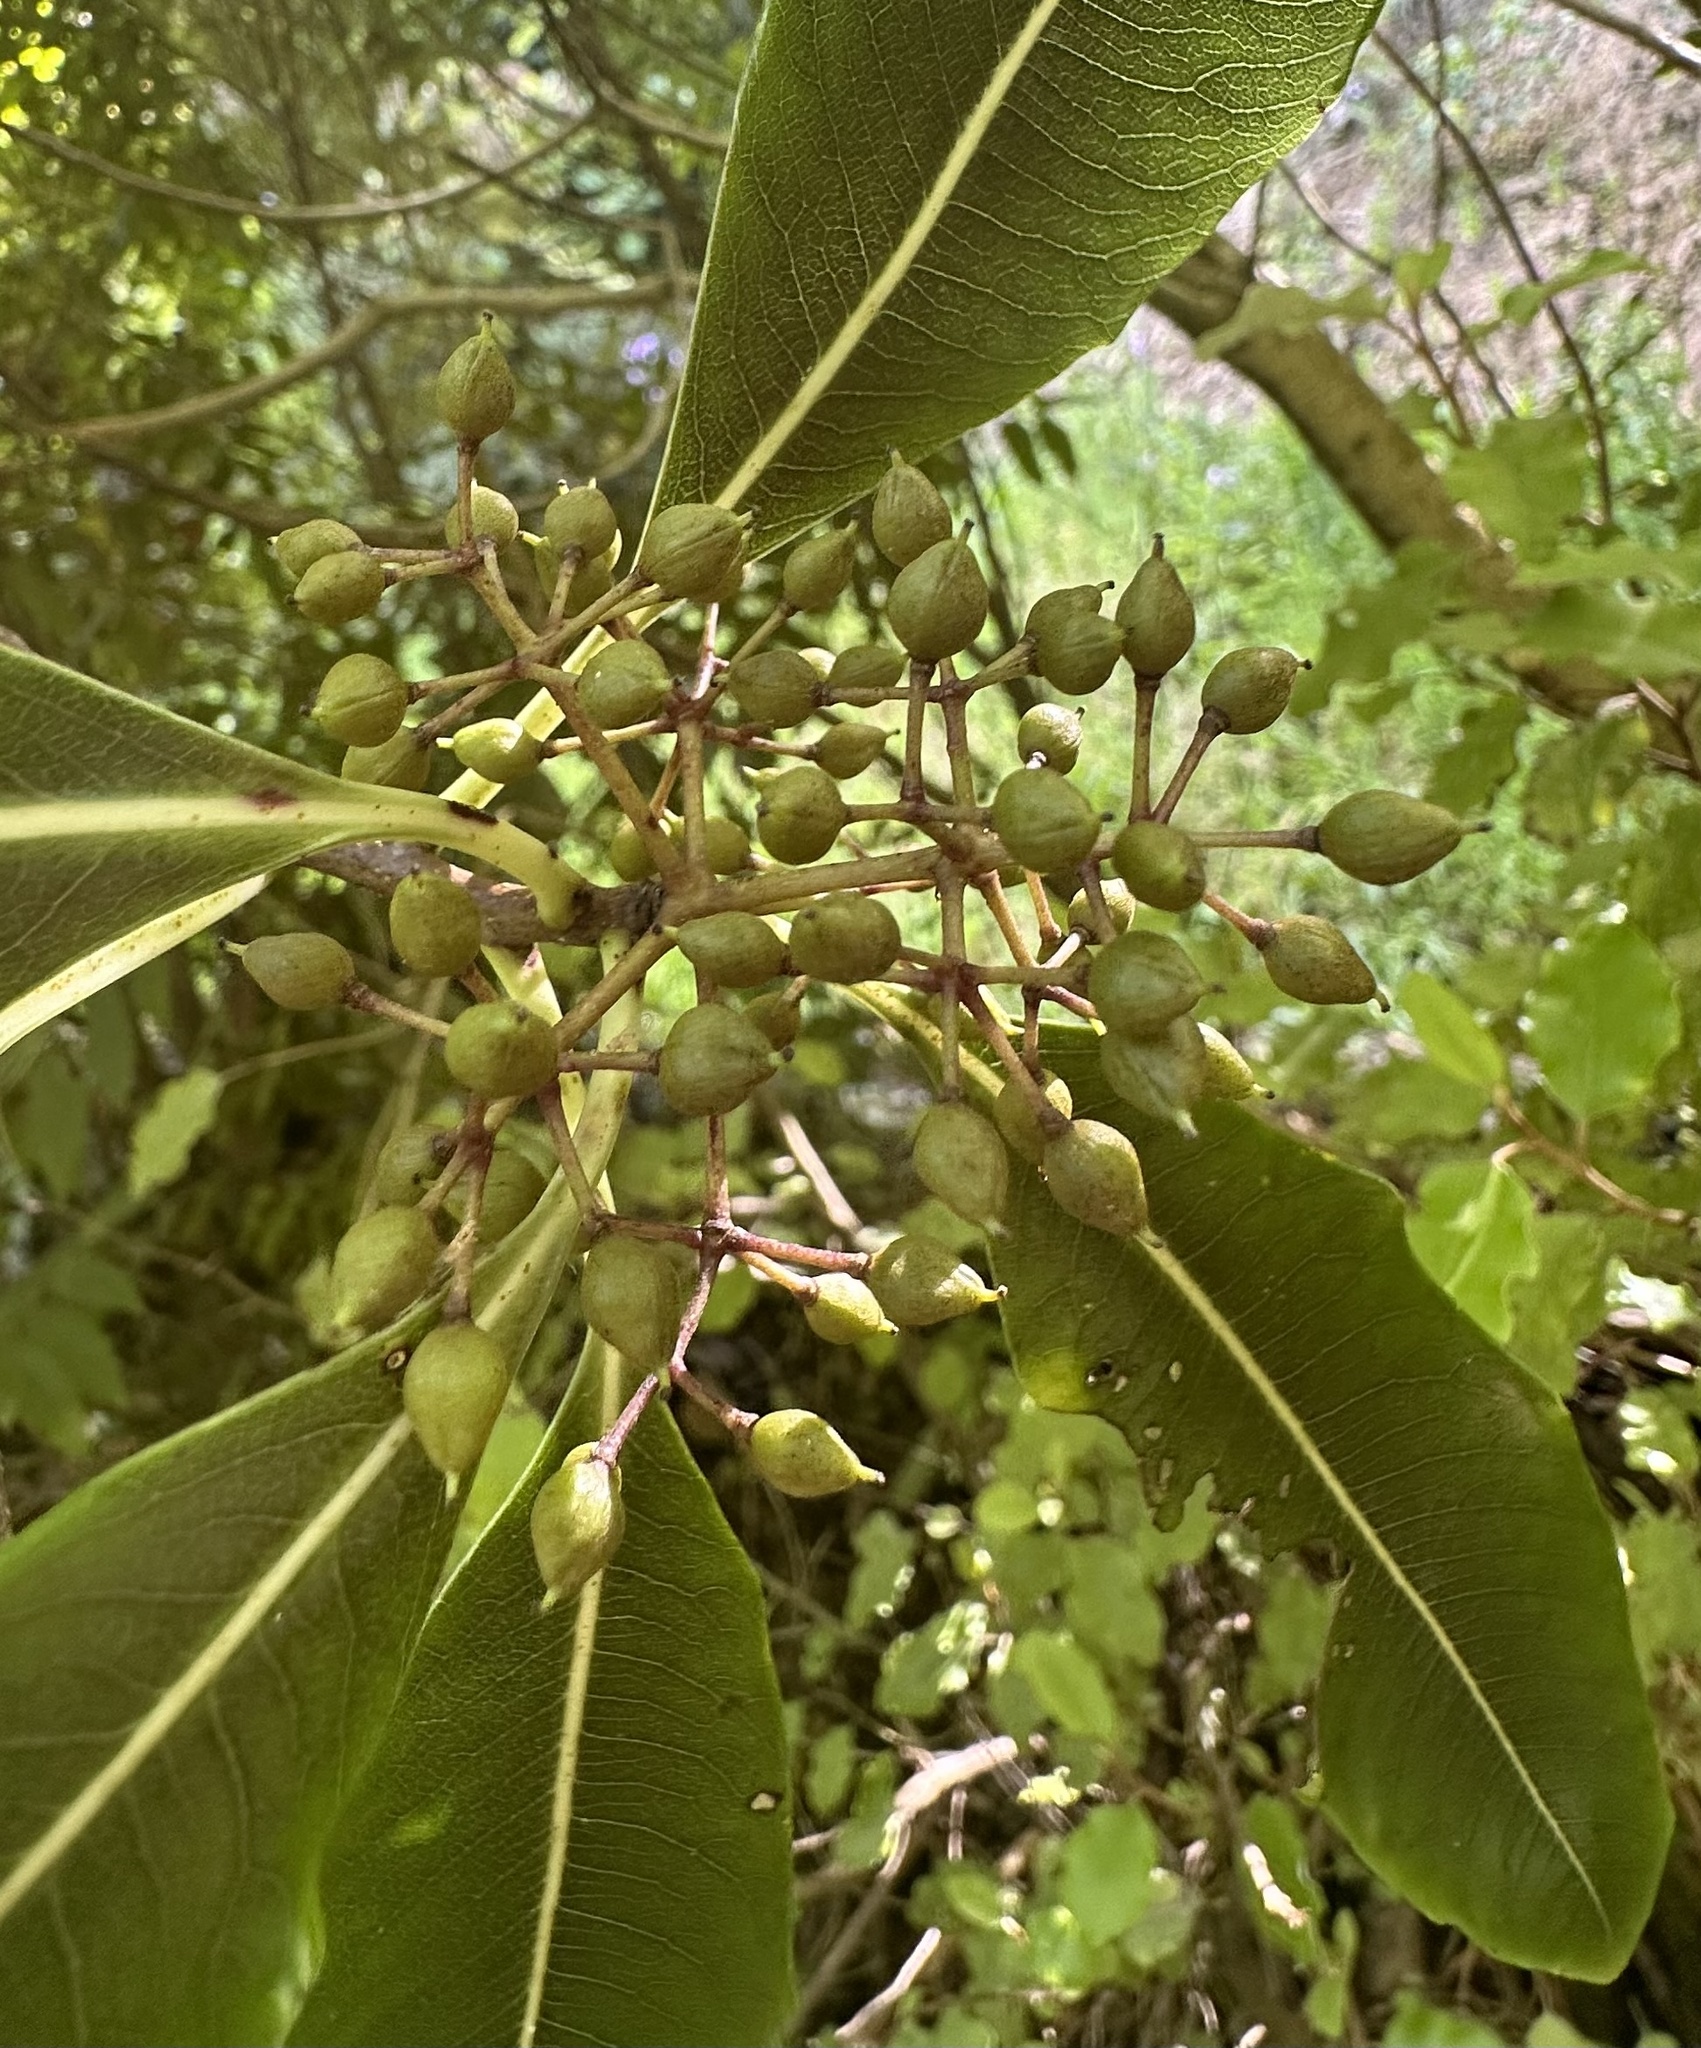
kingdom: Plantae
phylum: Tracheophyta
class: Magnoliopsida
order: Apiales
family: Pittosporaceae
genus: Pittosporum
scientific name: Pittosporum eugenioides
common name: Lemonwood
